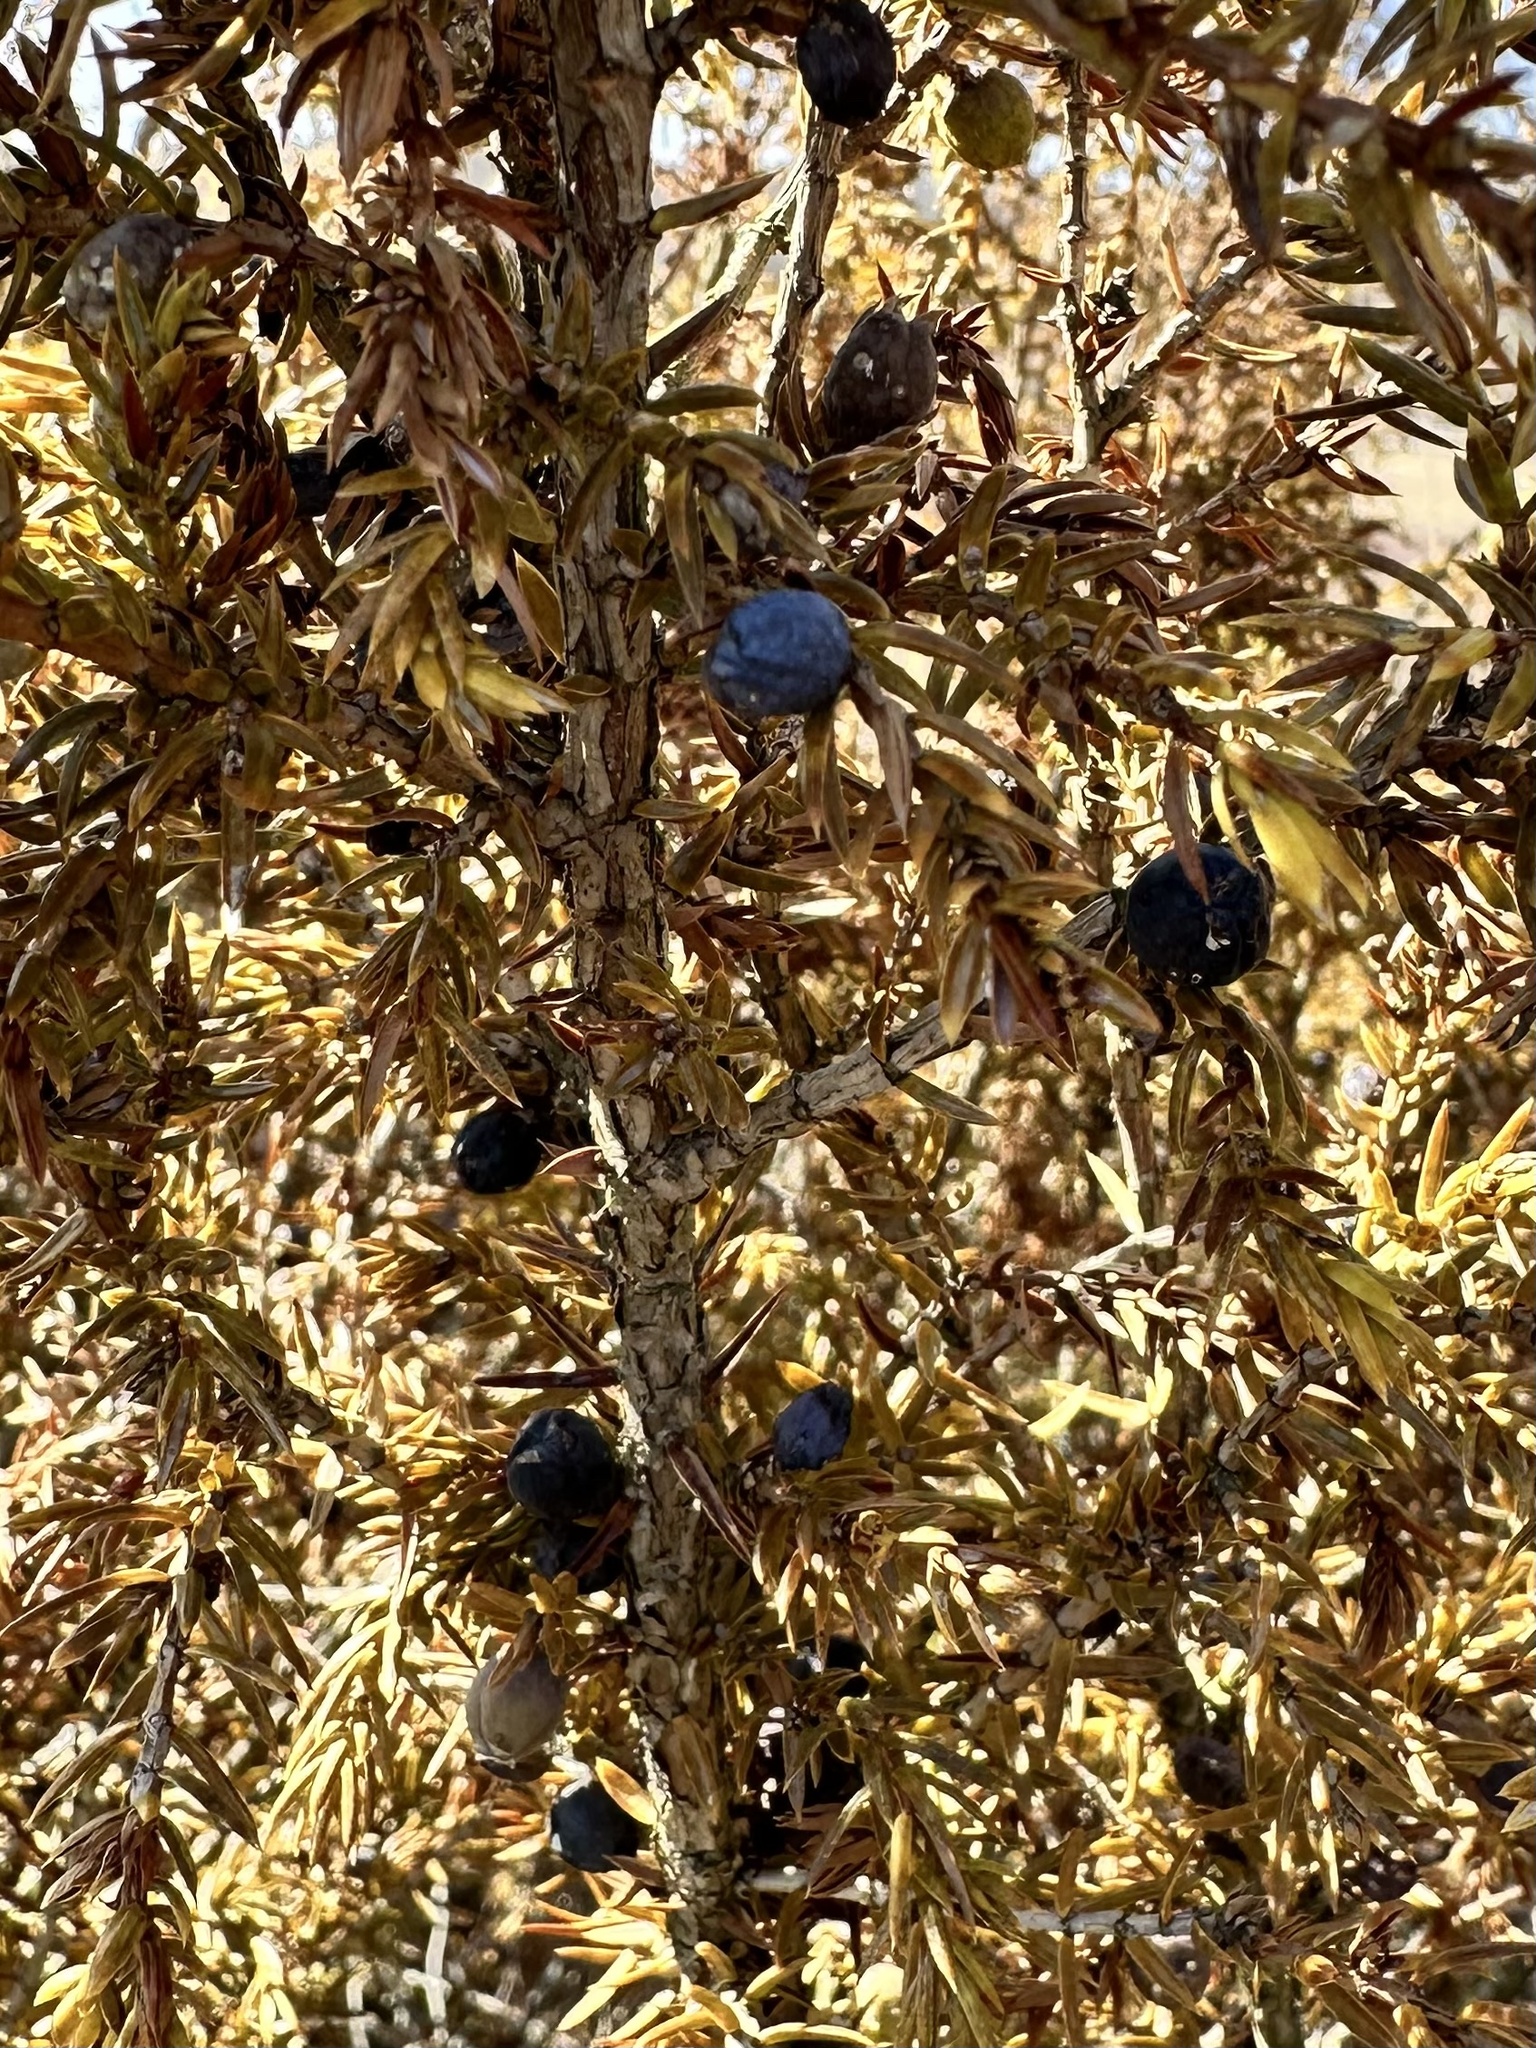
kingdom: Plantae
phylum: Tracheophyta
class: Pinopsida
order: Pinales
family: Cupressaceae
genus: Juniperus
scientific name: Juniperus communis
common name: Common juniper
